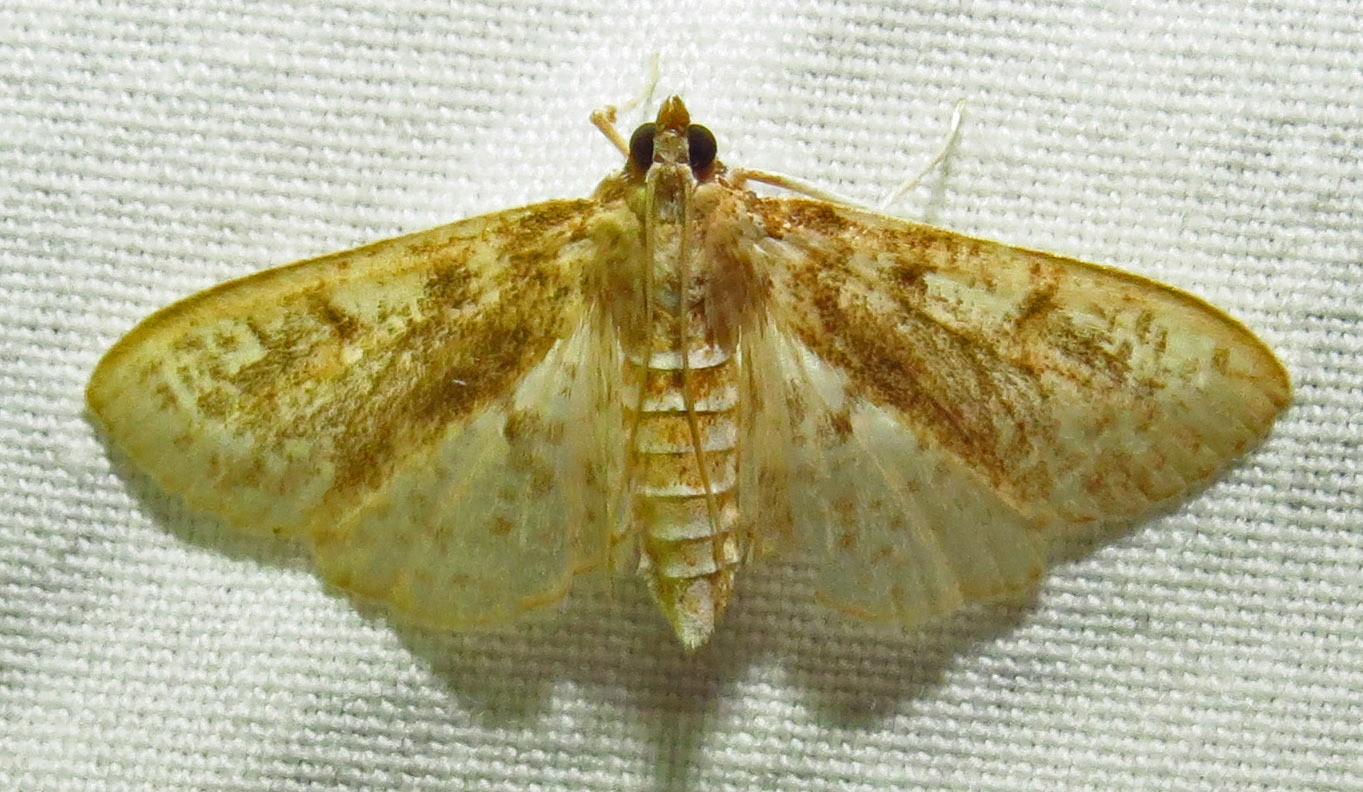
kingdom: Animalia
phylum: Arthropoda
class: Insecta
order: Lepidoptera
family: Crambidae
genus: Palpita
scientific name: Palpita freemanalis
